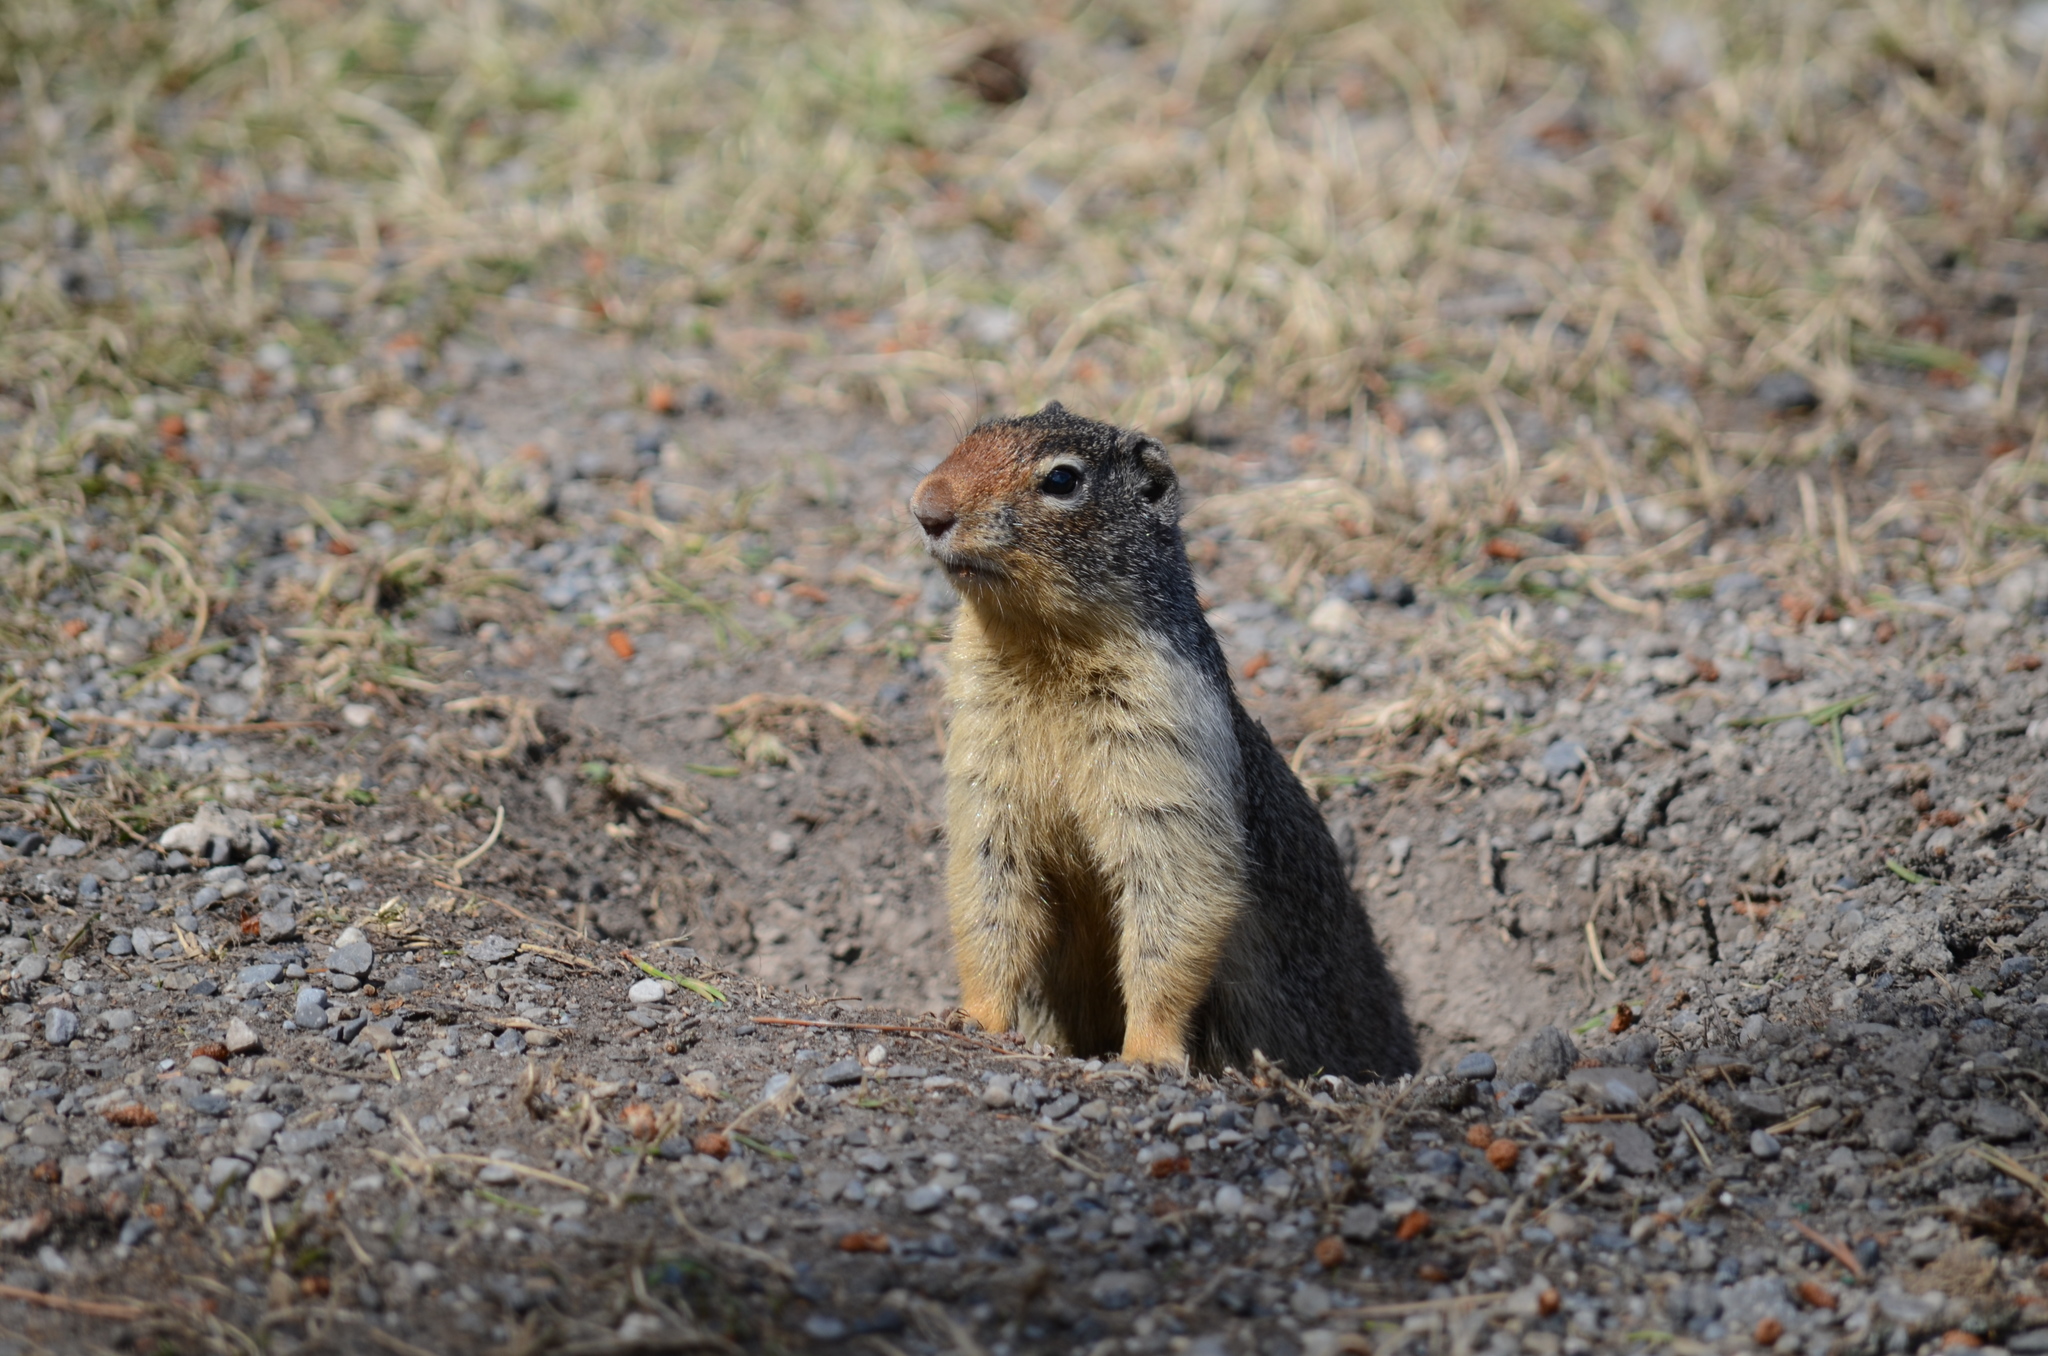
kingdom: Animalia
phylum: Chordata
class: Mammalia
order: Rodentia
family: Sciuridae
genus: Urocitellus
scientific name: Urocitellus columbianus
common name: Columbian ground squirrel
